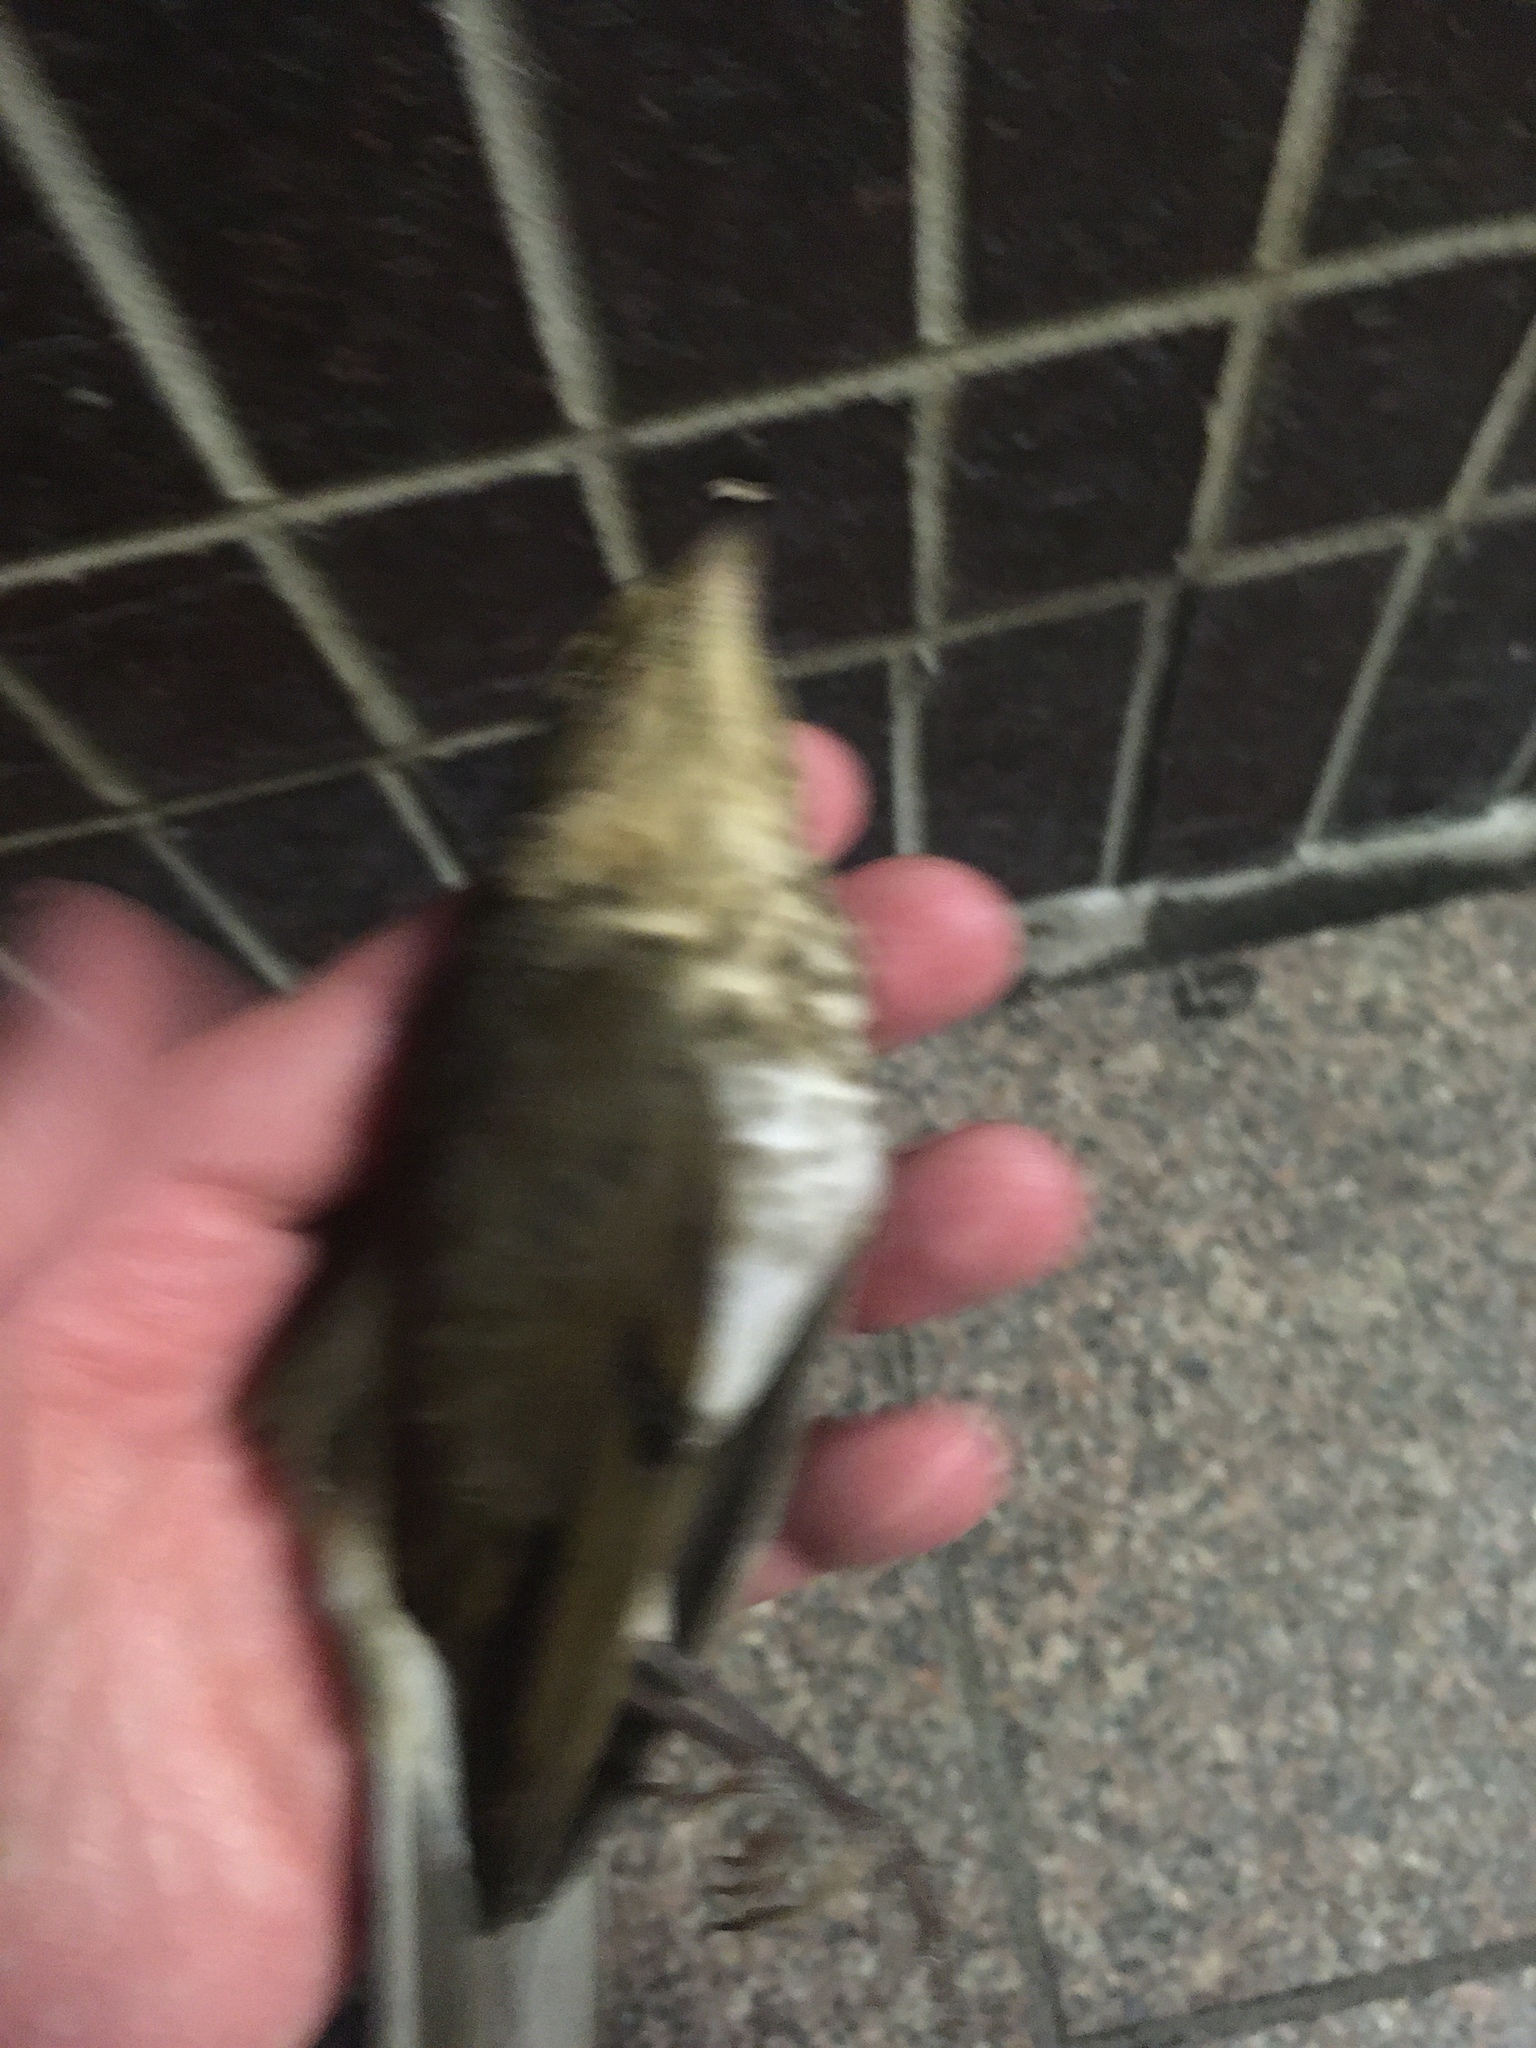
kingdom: Animalia
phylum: Chordata
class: Aves
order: Passeriformes
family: Turdidae
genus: Catharus
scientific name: Catharus ustulatus
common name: Swainson's thrush
